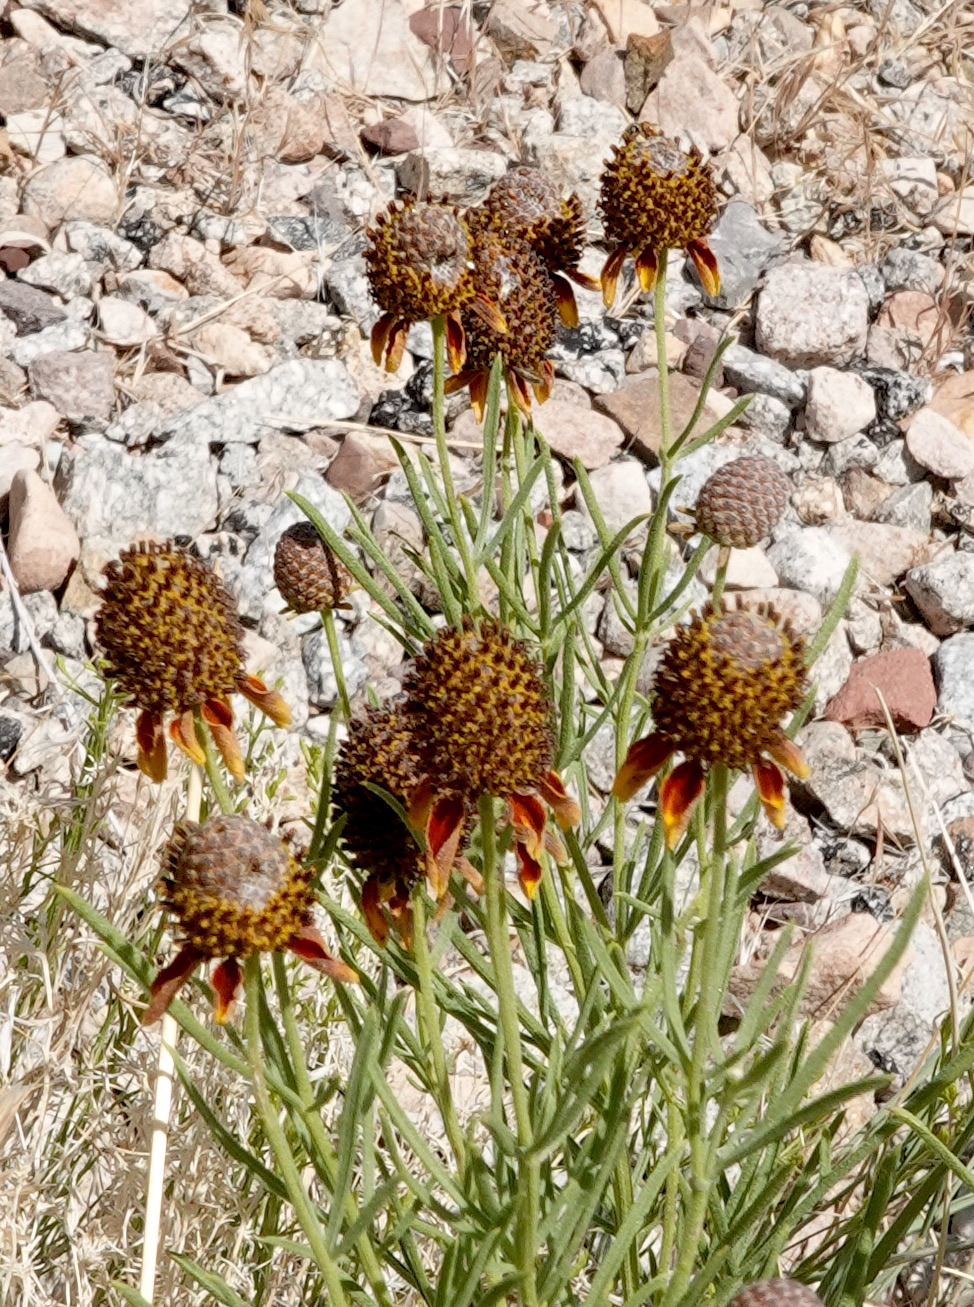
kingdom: Plantae
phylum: Tracheophyta
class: Magnoliopsida
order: Asterales
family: Asteraceae
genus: Ratibida
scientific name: Ratibida columnifera
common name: Prairie coneflower
